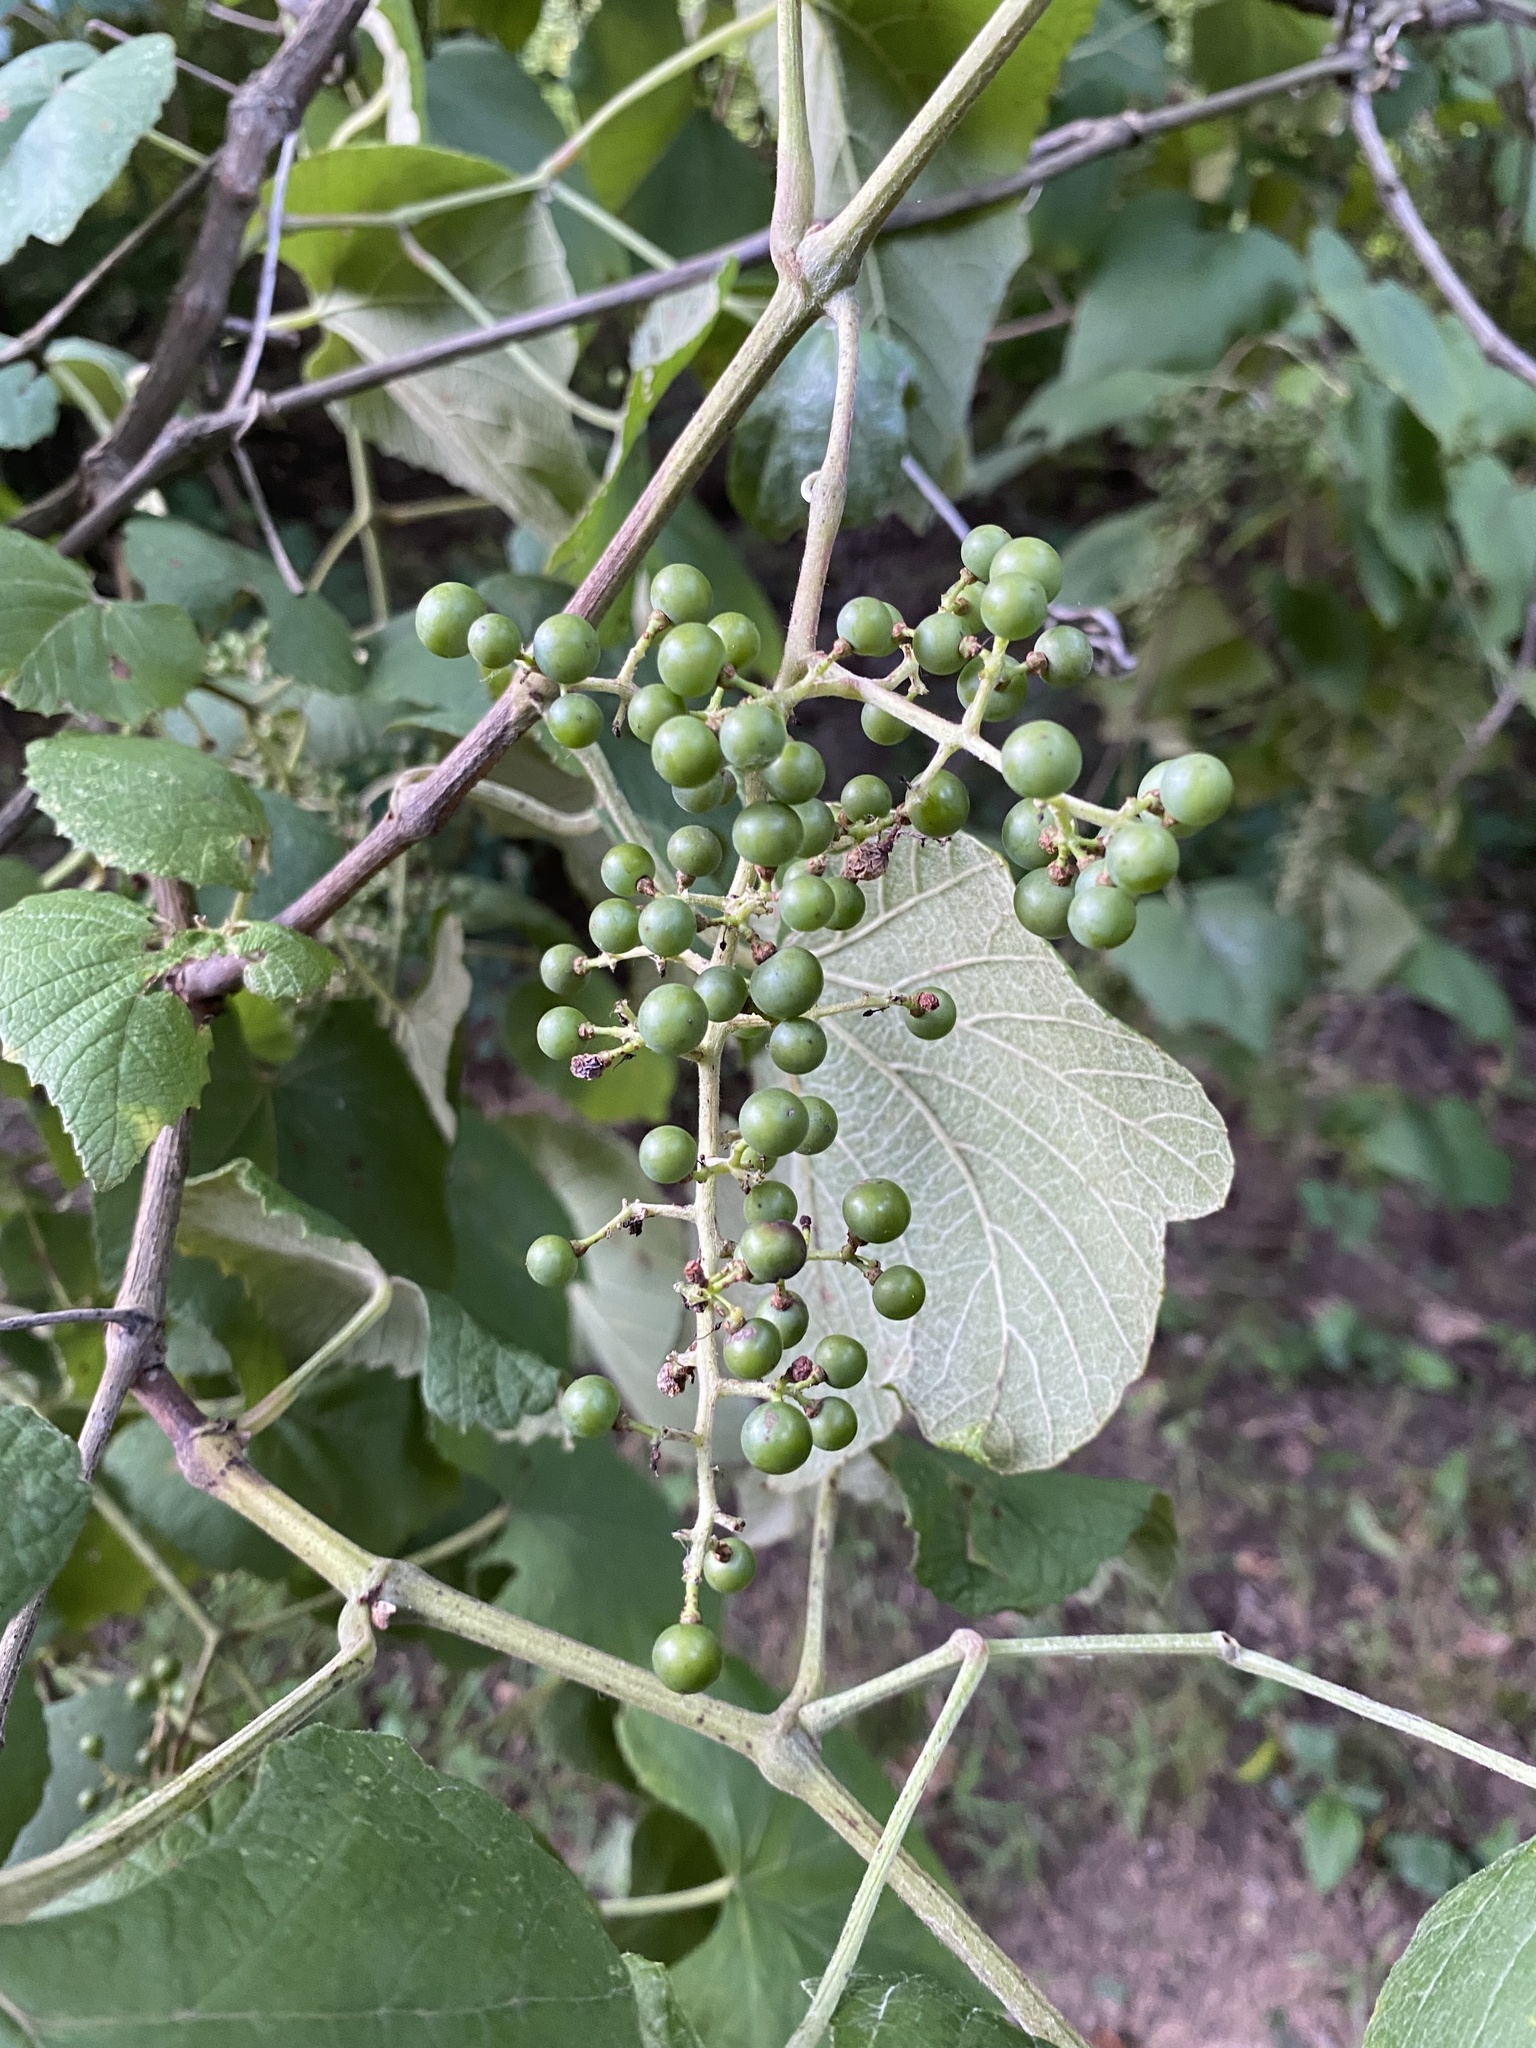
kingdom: Plantae
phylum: Tracheophyta
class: Magnoliopsida
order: Vitales
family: Vitaceae
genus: Vitis
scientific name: Vitis mustangensis
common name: Mustang grape
